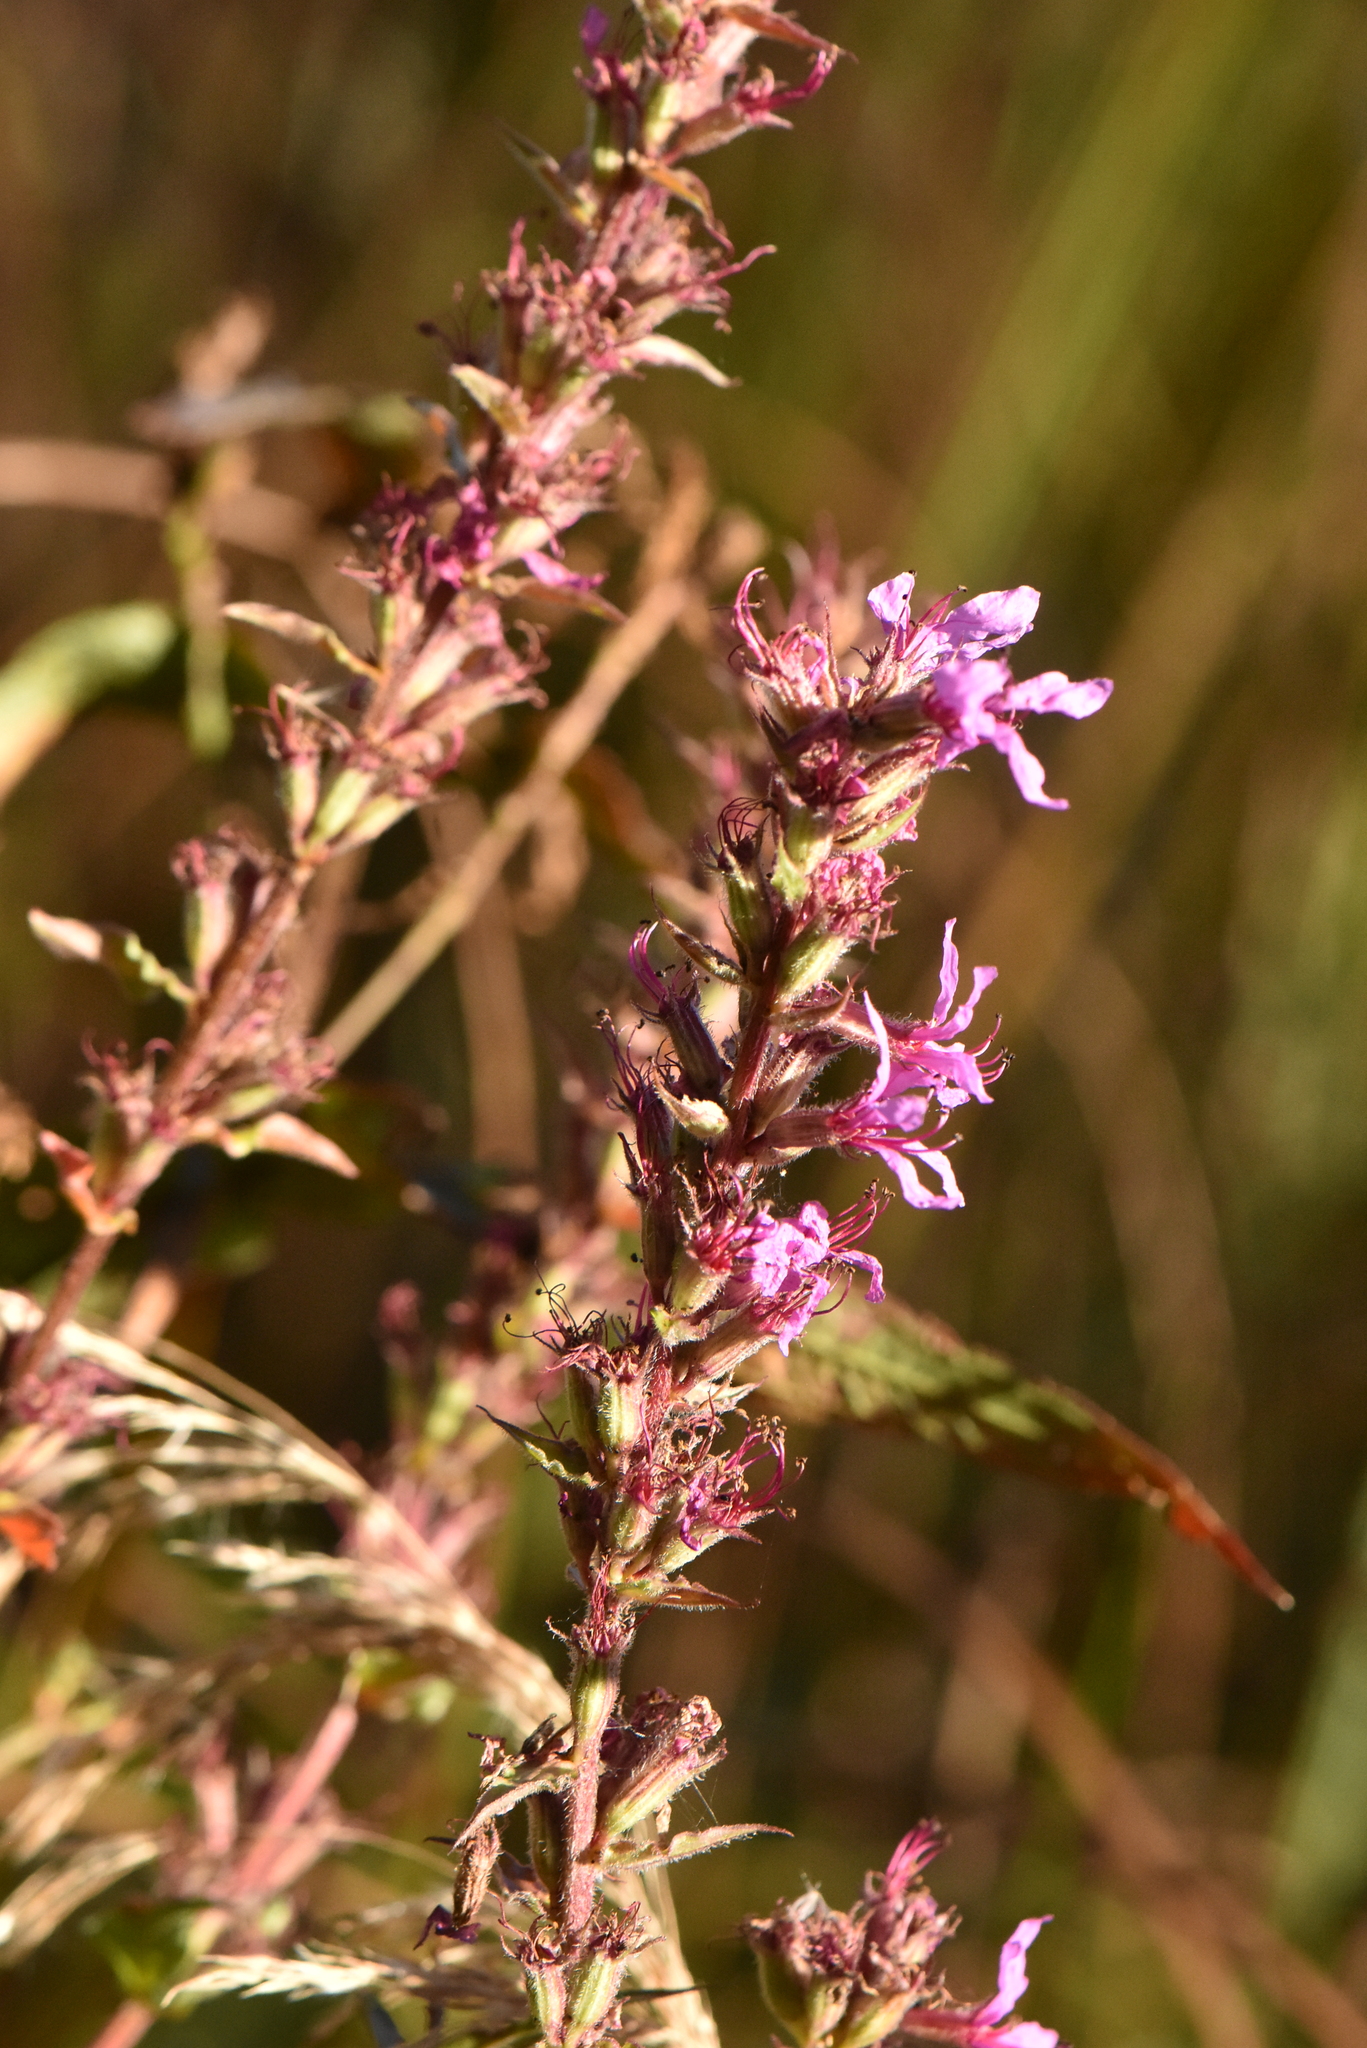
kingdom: Plantae
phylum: Tracheophyta
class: Magnoliopsida
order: Myrtales
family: Lythraceae
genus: Lythrum
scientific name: Lythrum salicaria
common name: Purple loosestrife
